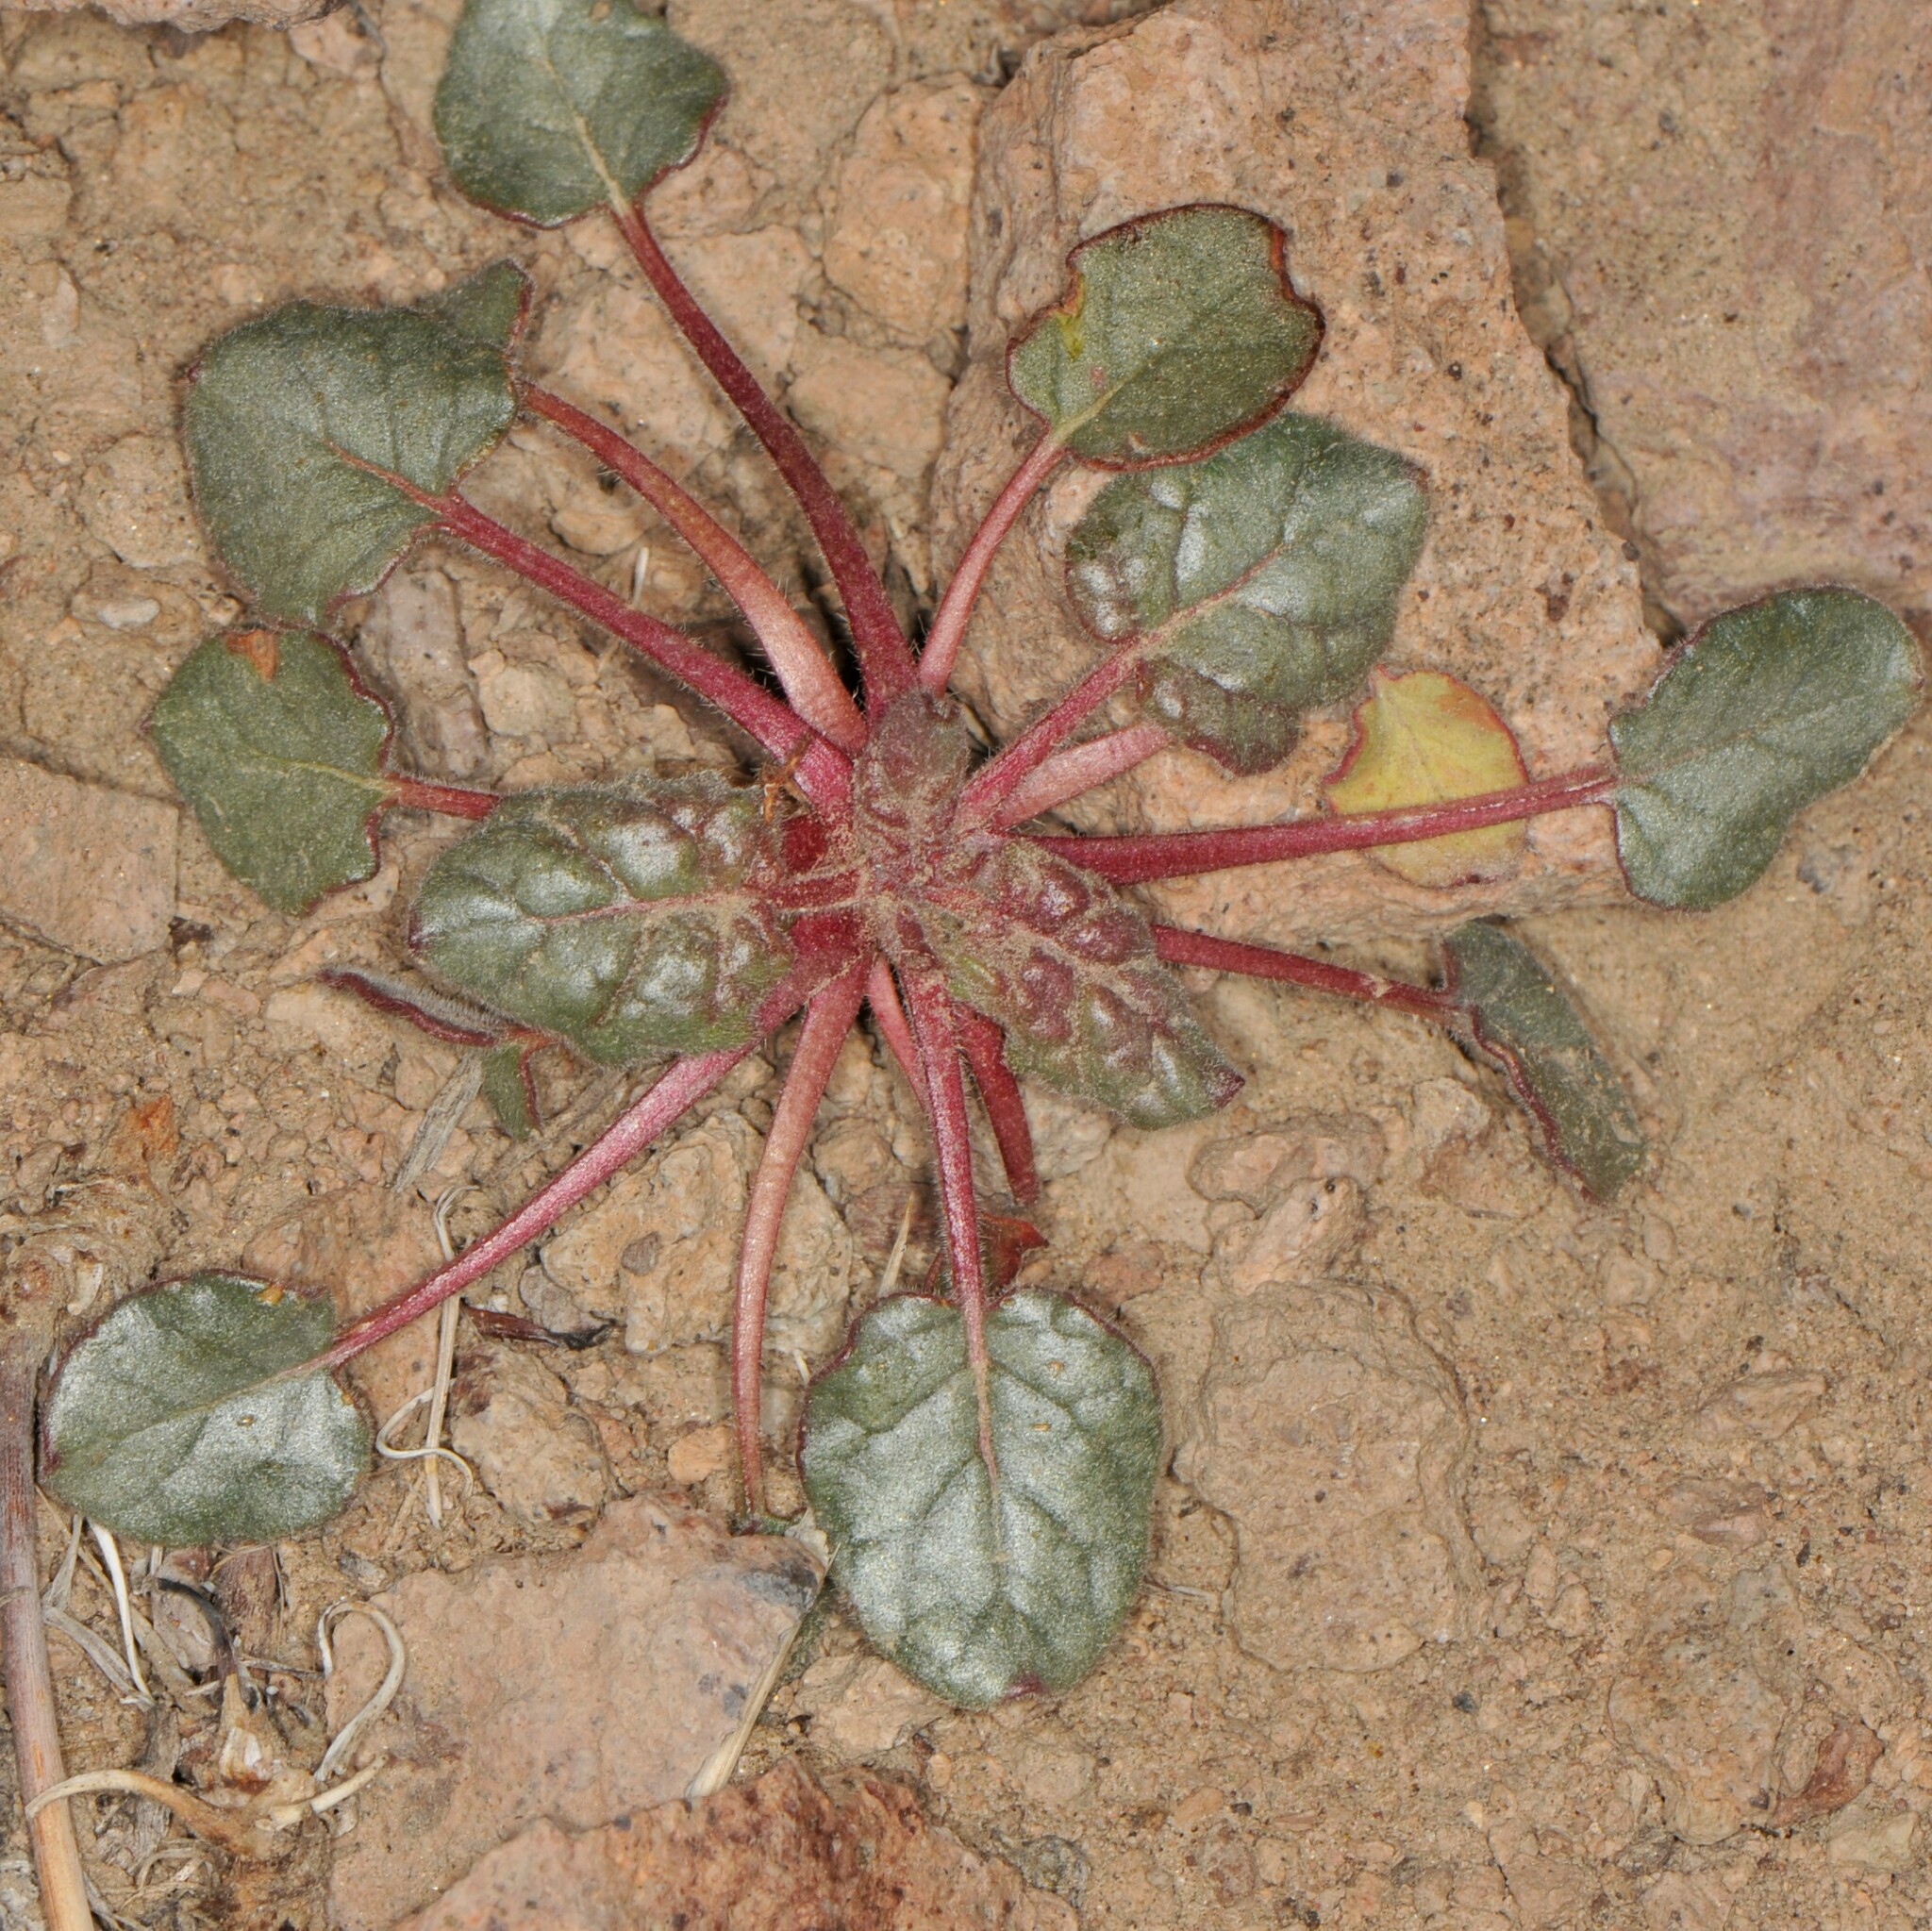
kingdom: Plantae
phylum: Tracheophyta
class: Magnoliopsida
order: Caryophyllales
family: Polygonaceae
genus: Eriogonum
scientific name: Eriogonum inflatum
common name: Desert trumpet
